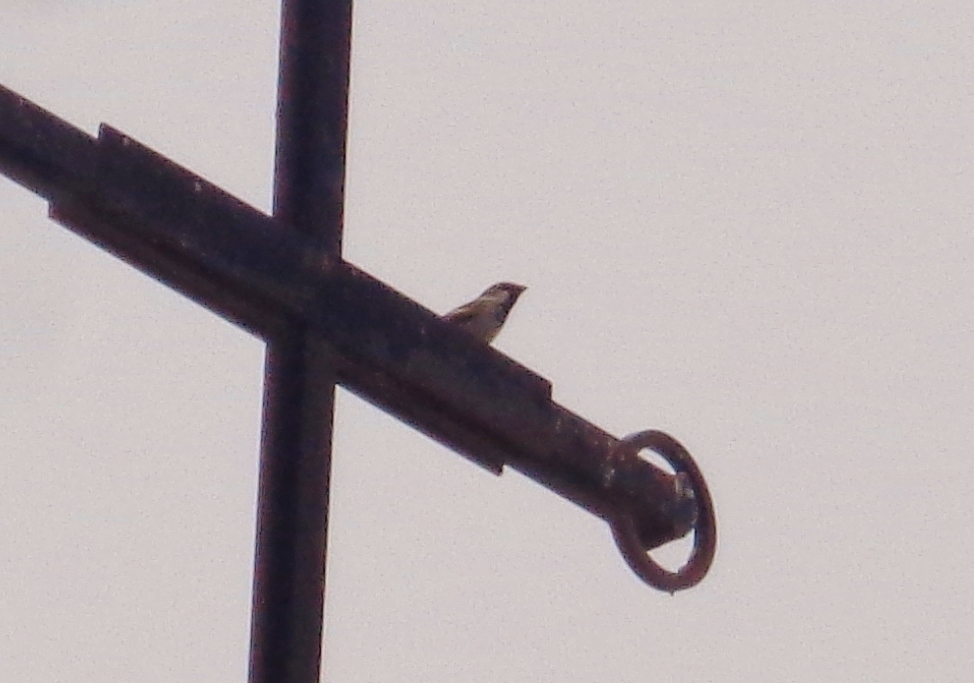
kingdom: Animalia
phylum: Chordata
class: Aves
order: Passeriformes
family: Passeridae
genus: Passer
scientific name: Passer domesticus
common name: House sparrow
